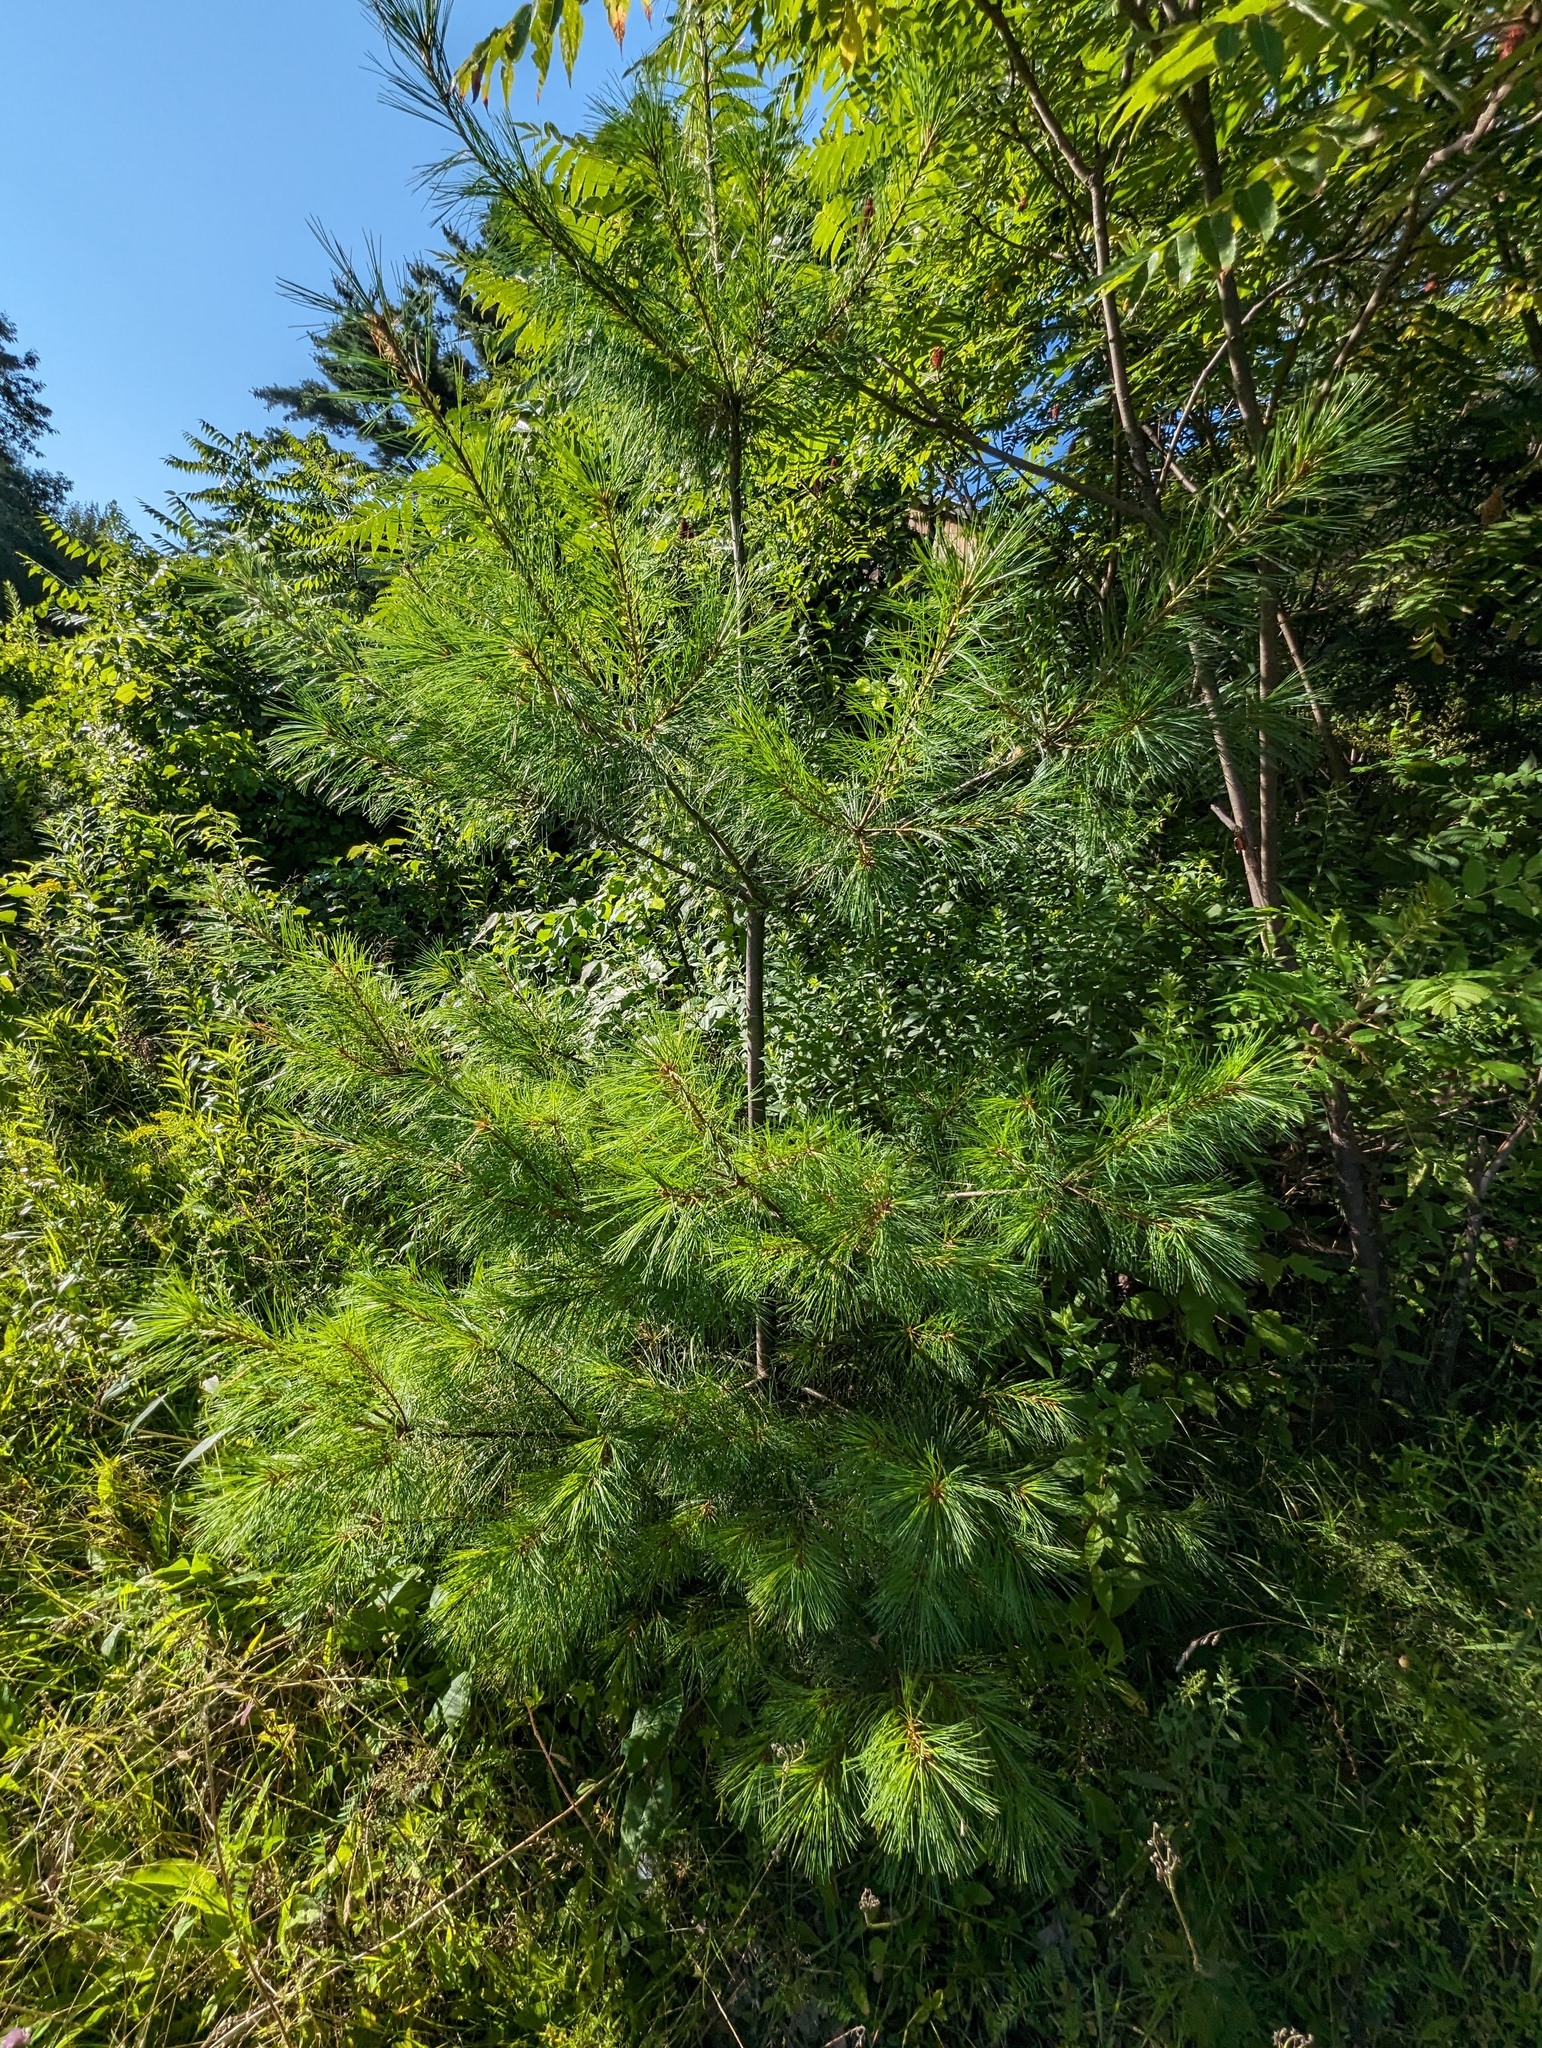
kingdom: Plantae
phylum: Tracheophyta
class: Pinopsida
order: Pinales
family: Pinaceae
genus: Pinus
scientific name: Pinus strobus
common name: Weymouth pine
